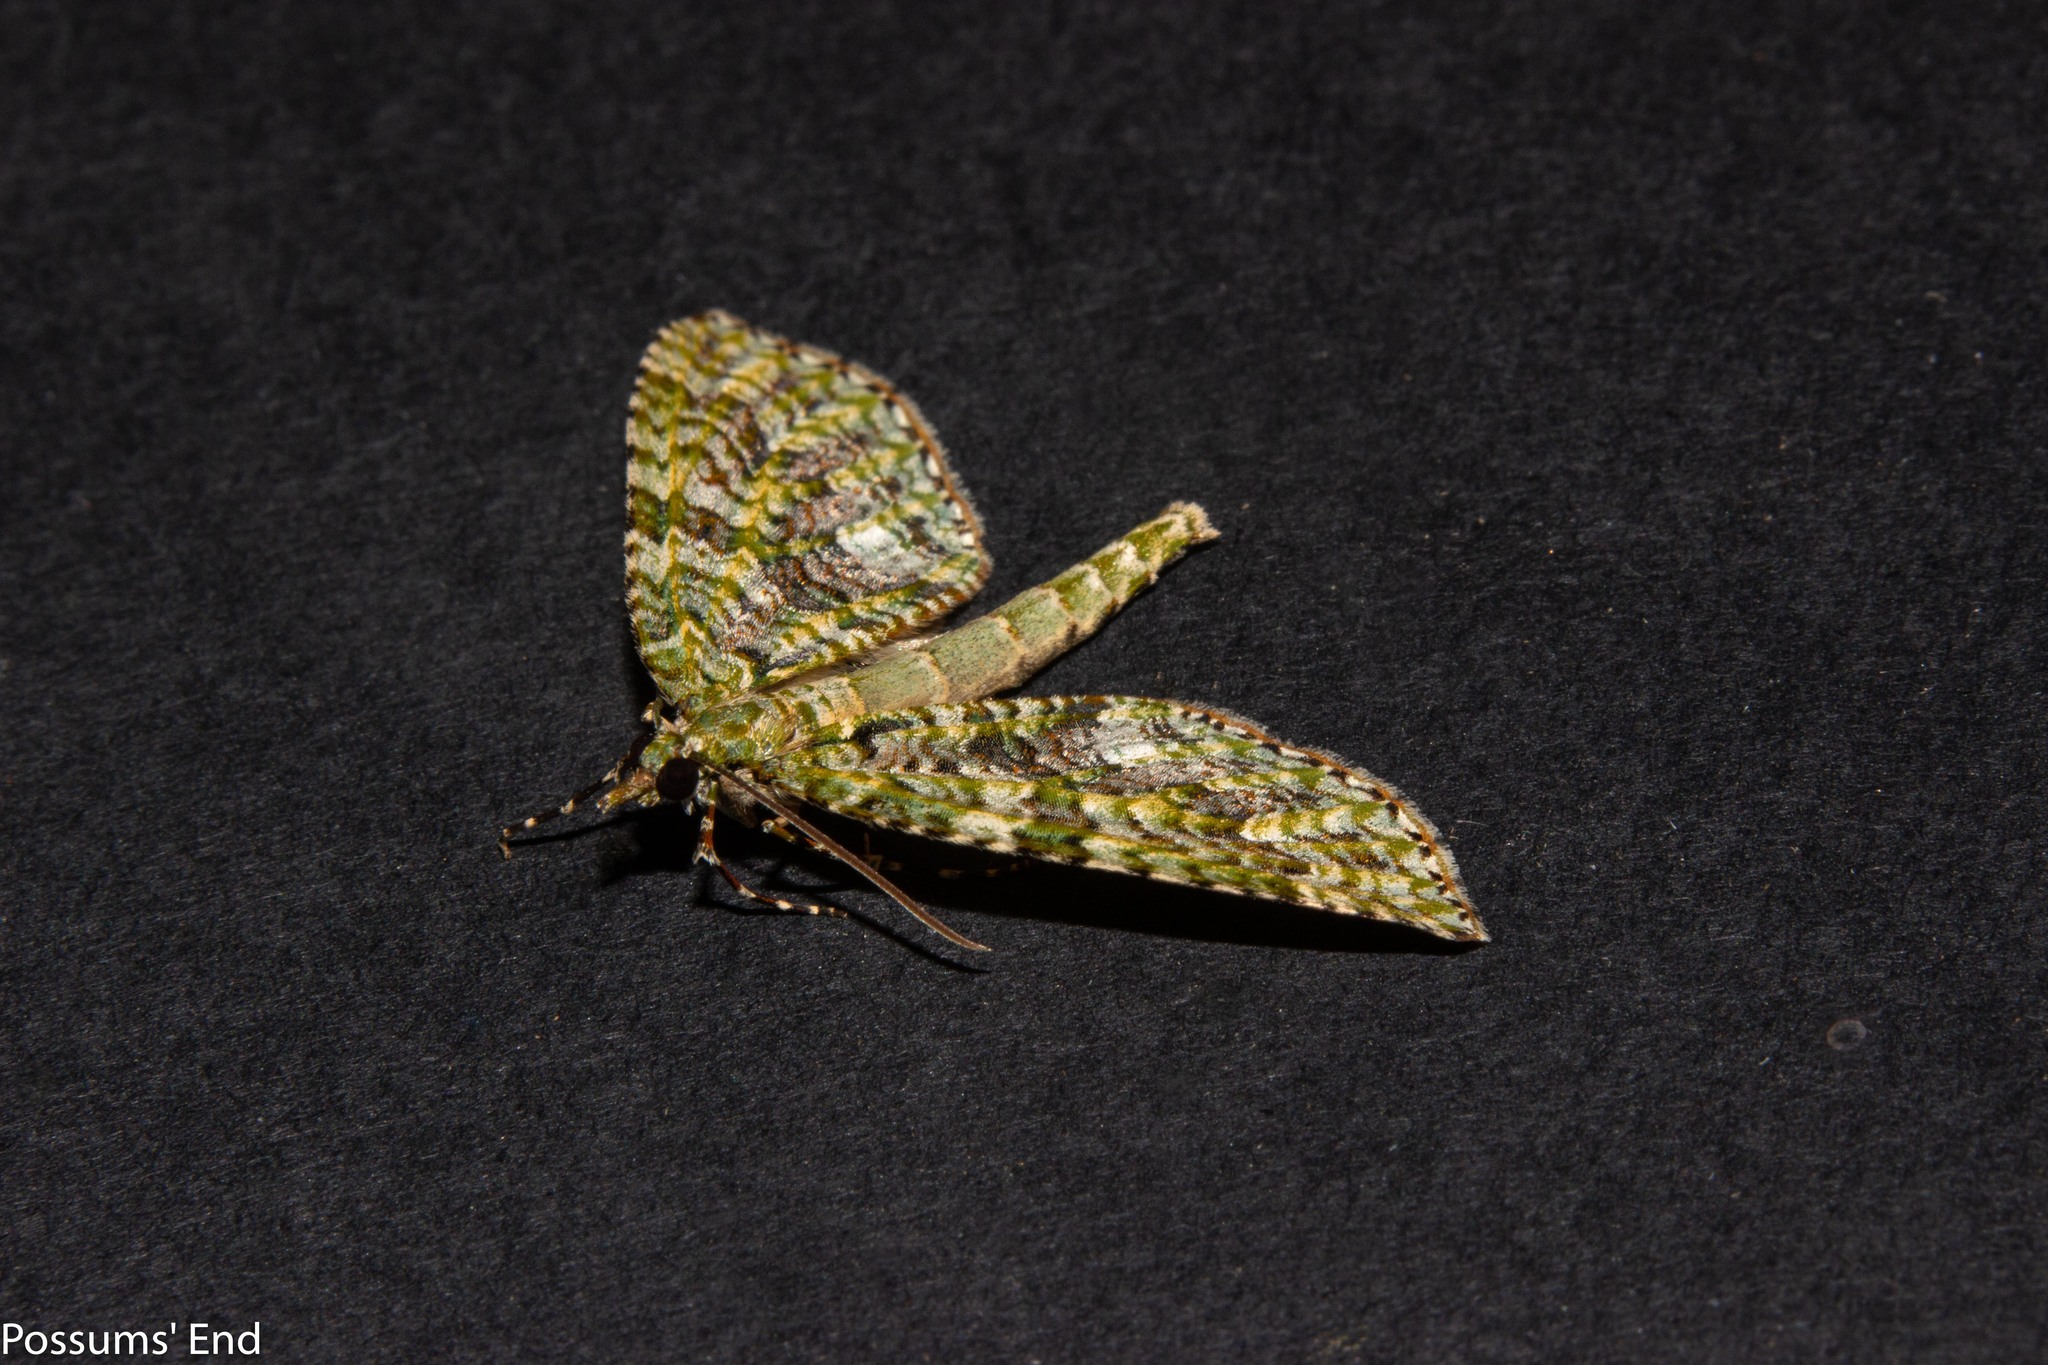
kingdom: Animalia
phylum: Arthropoda
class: Insecta
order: Lepidoptera
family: Geometridae
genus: Tatosoma
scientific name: Tatosoma agrionata
